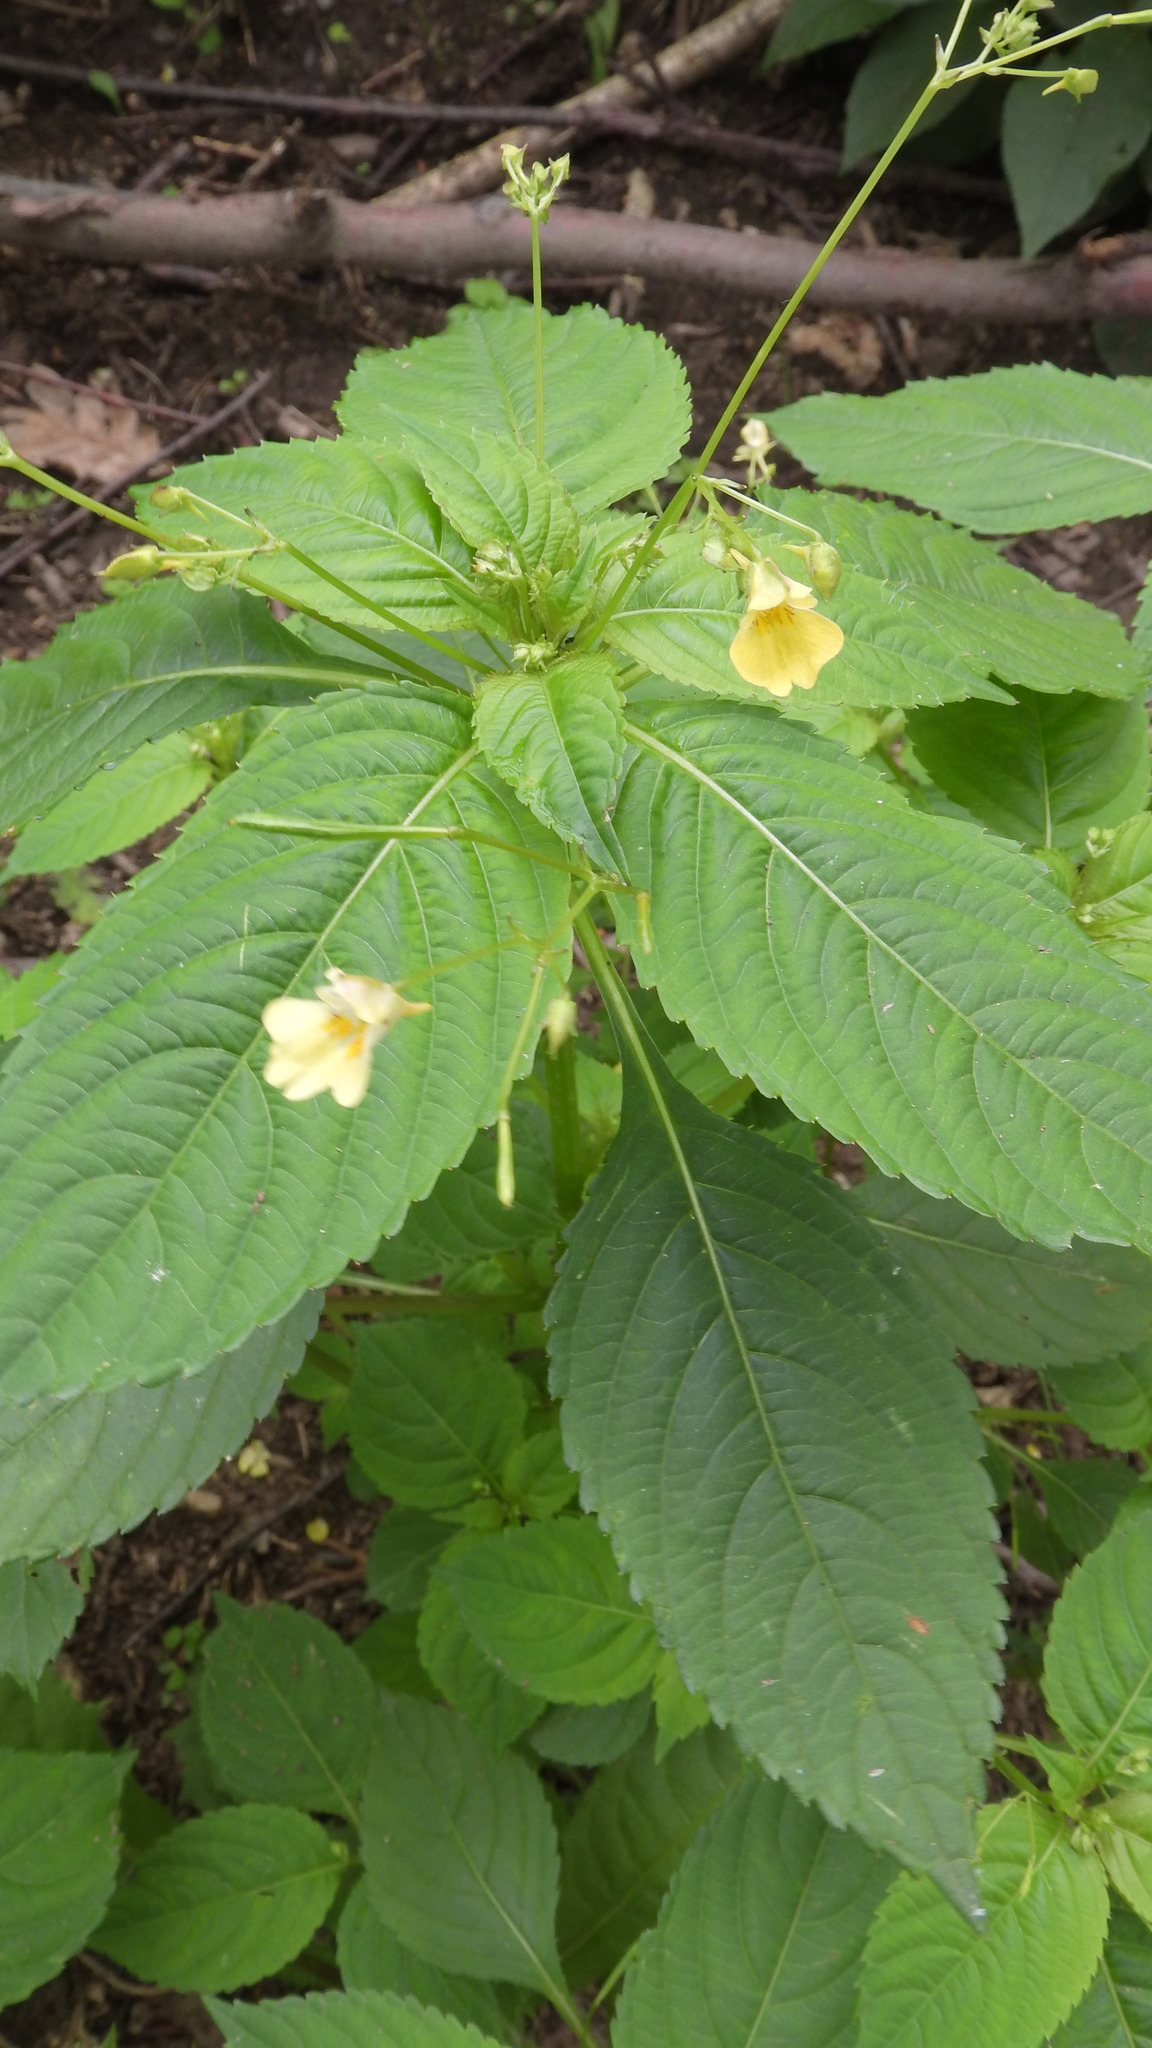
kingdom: Plantae
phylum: Tracheophyta
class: Magnoliopsida
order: Ericales
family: Balsaminaceae
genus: Impatiens
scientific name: Impatiens parviflora
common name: Small balsam
